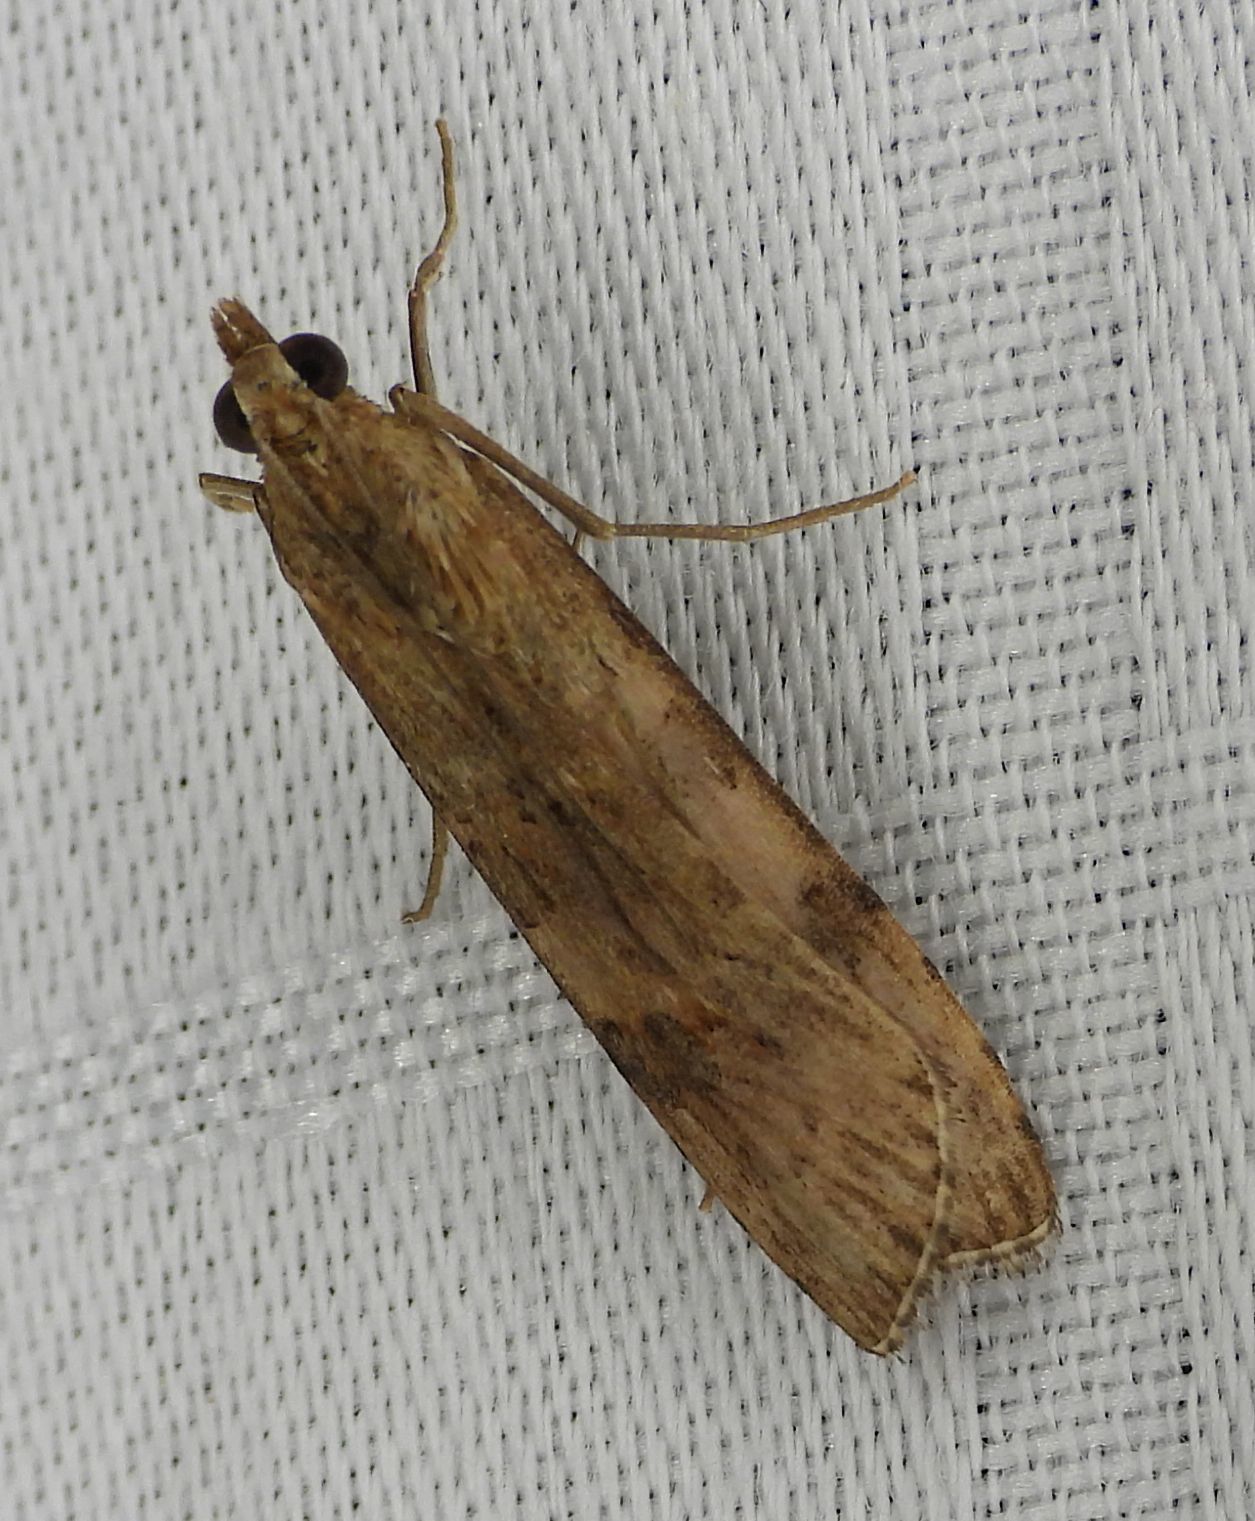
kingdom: Animalia
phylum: Arthropoda
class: Insecta
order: Lepidoptera
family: Crambidae
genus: Nomophila
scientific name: Nomophila nearctica
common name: American rush veneer
